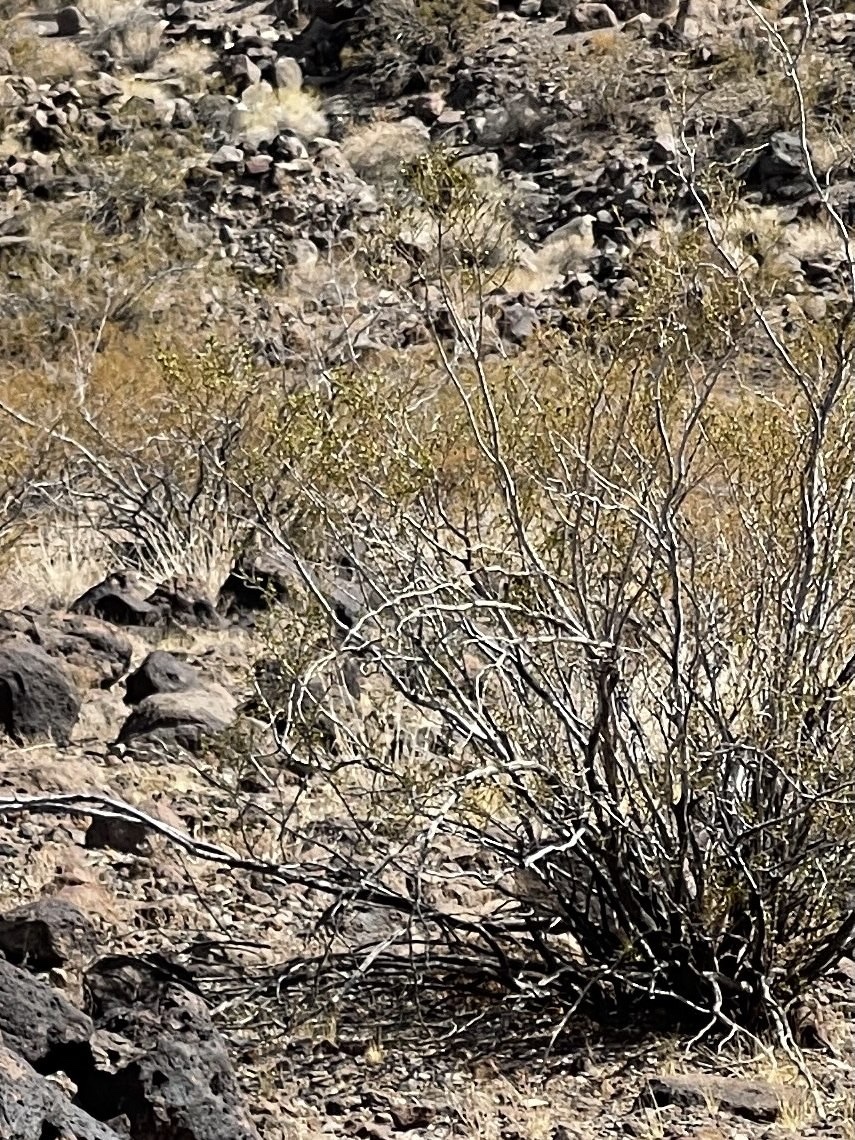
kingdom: Plantae
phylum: Tracheophyta
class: Magnoliopsida
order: Zygophyllales
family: Zygophyllaceae
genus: Larrea
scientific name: Larrea tridentata
